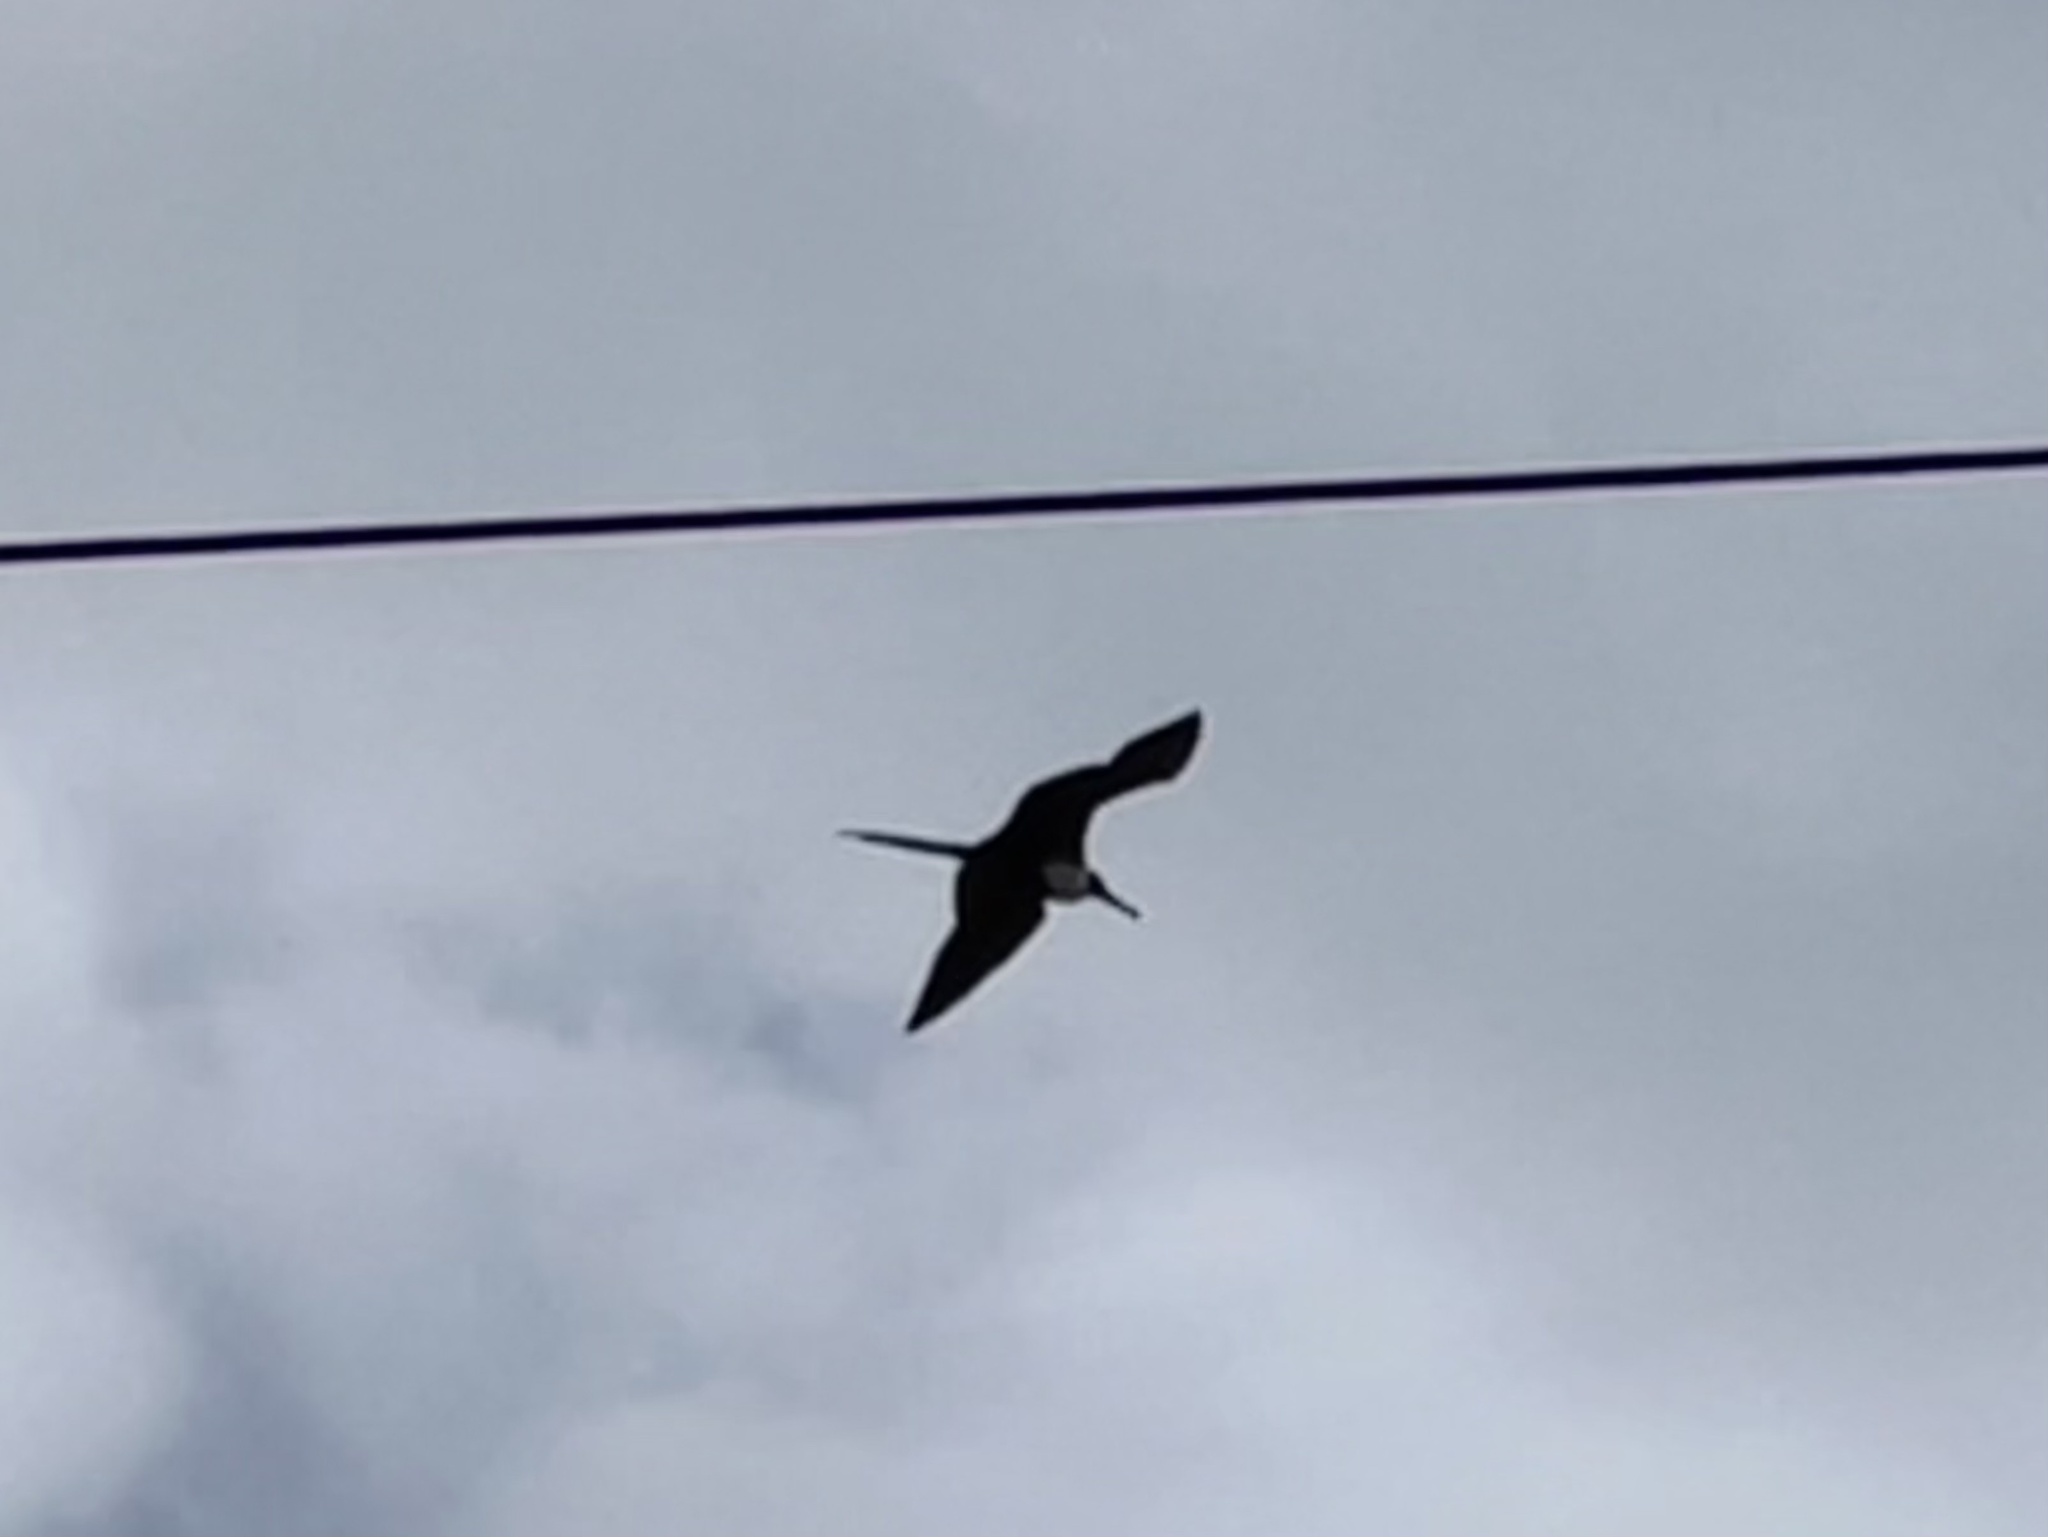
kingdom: Animalia
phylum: Chordata
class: Aves
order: Suliformes
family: Fregatidae
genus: Fregata
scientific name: Fregata magnificens
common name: Magnificent frigatebird
